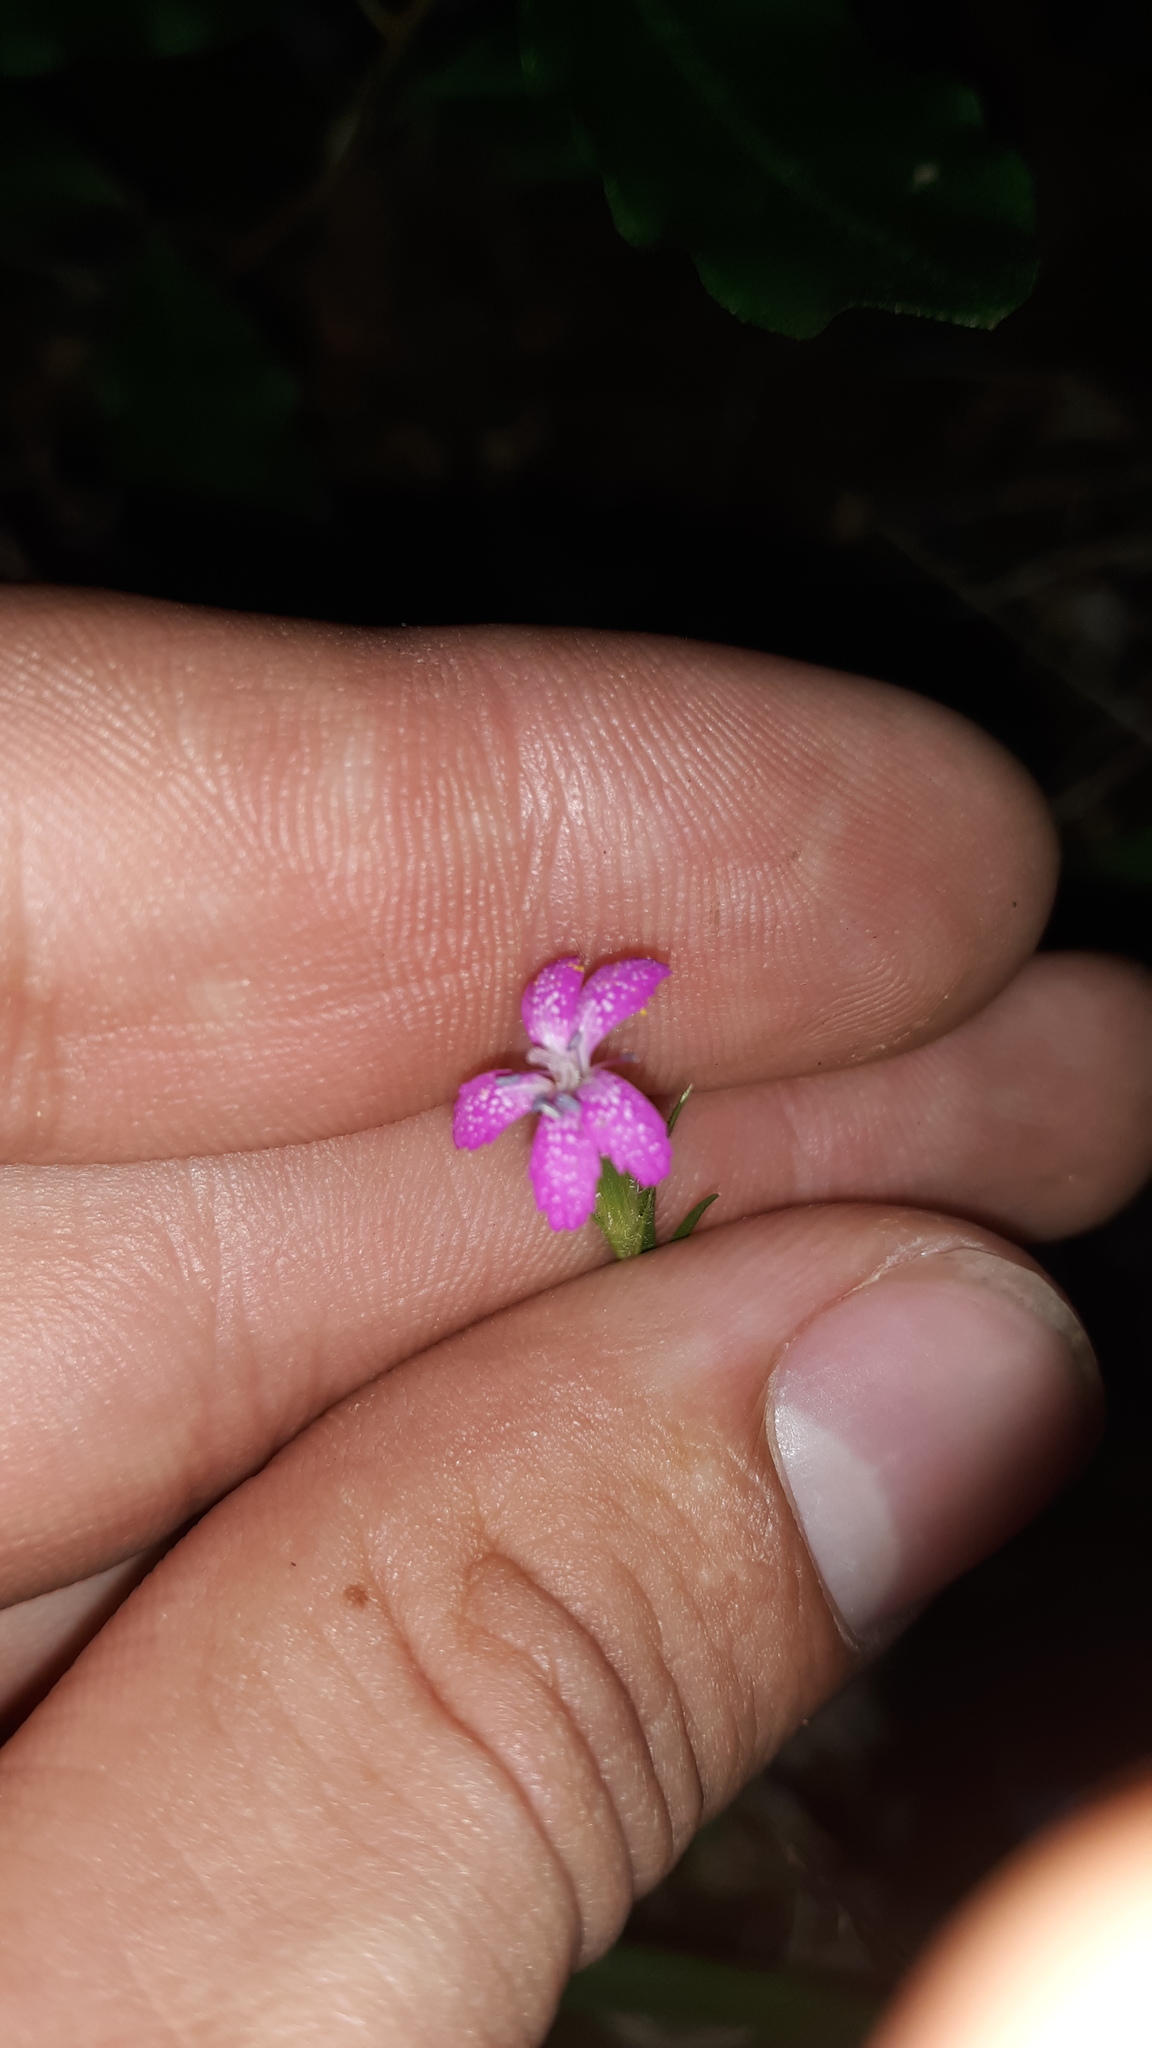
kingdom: Plantae
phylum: Tracheophyta
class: Magnoliopsida
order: Caryophyllales
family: Caryophyllaceae
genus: Dianthus
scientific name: Dianthus armeria
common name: Deptford pink
